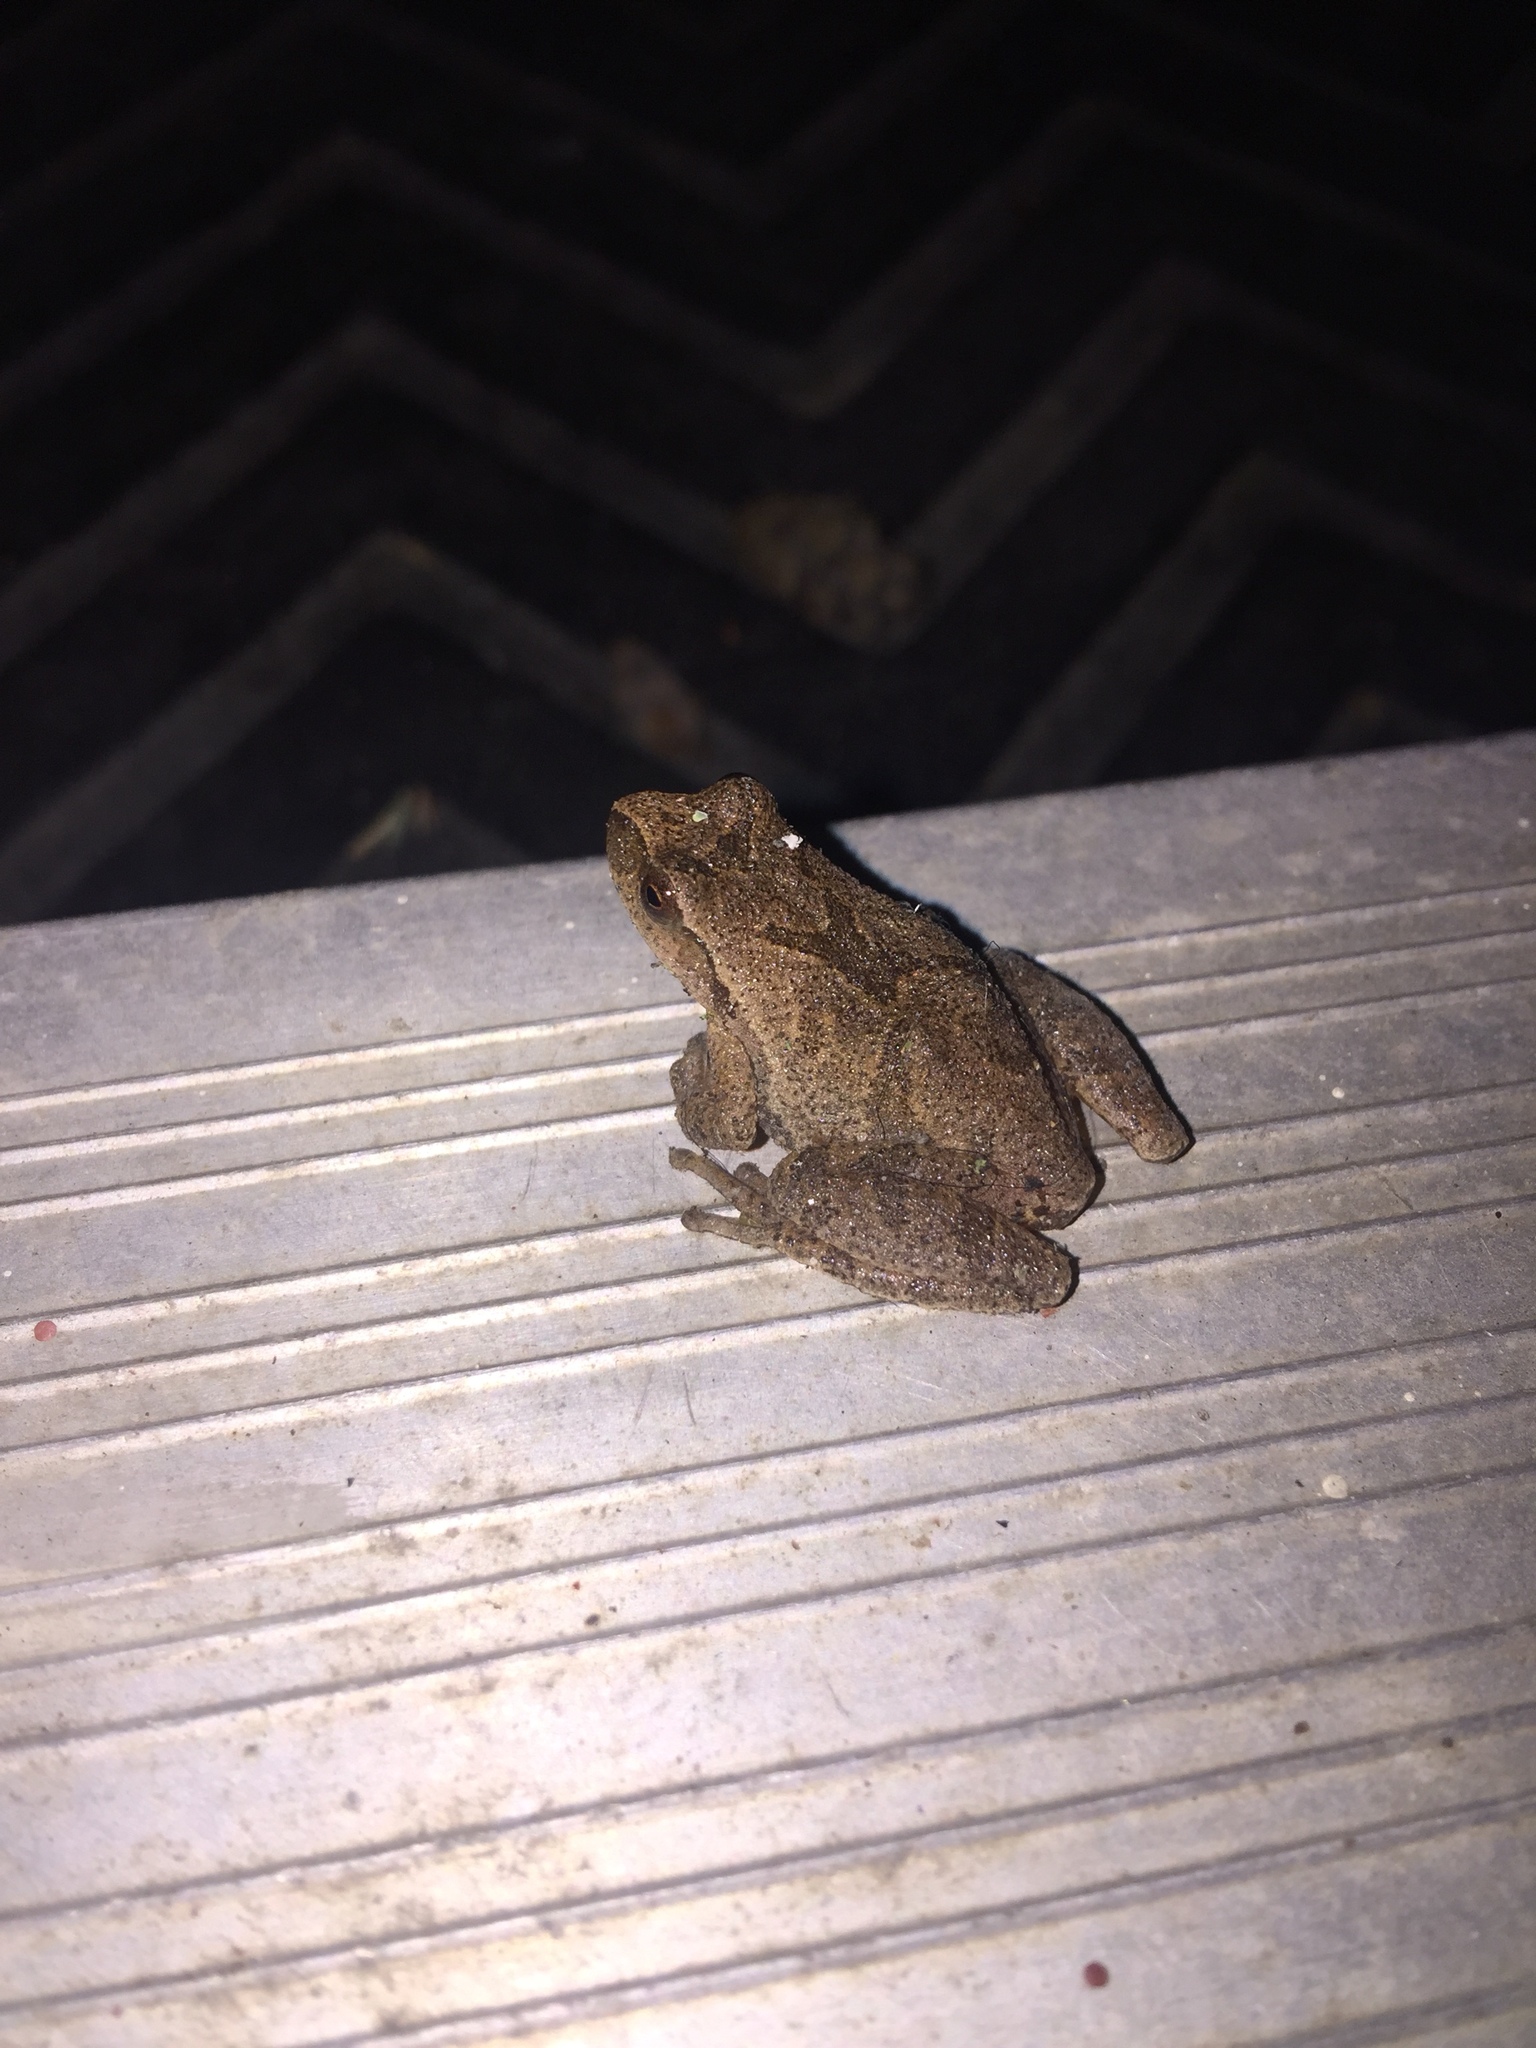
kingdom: Animalia
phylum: Chordata
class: Amphibia
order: Anura
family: Hylidae
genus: Pseudacris
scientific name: Pseudacris crucifer
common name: Spring peeper
